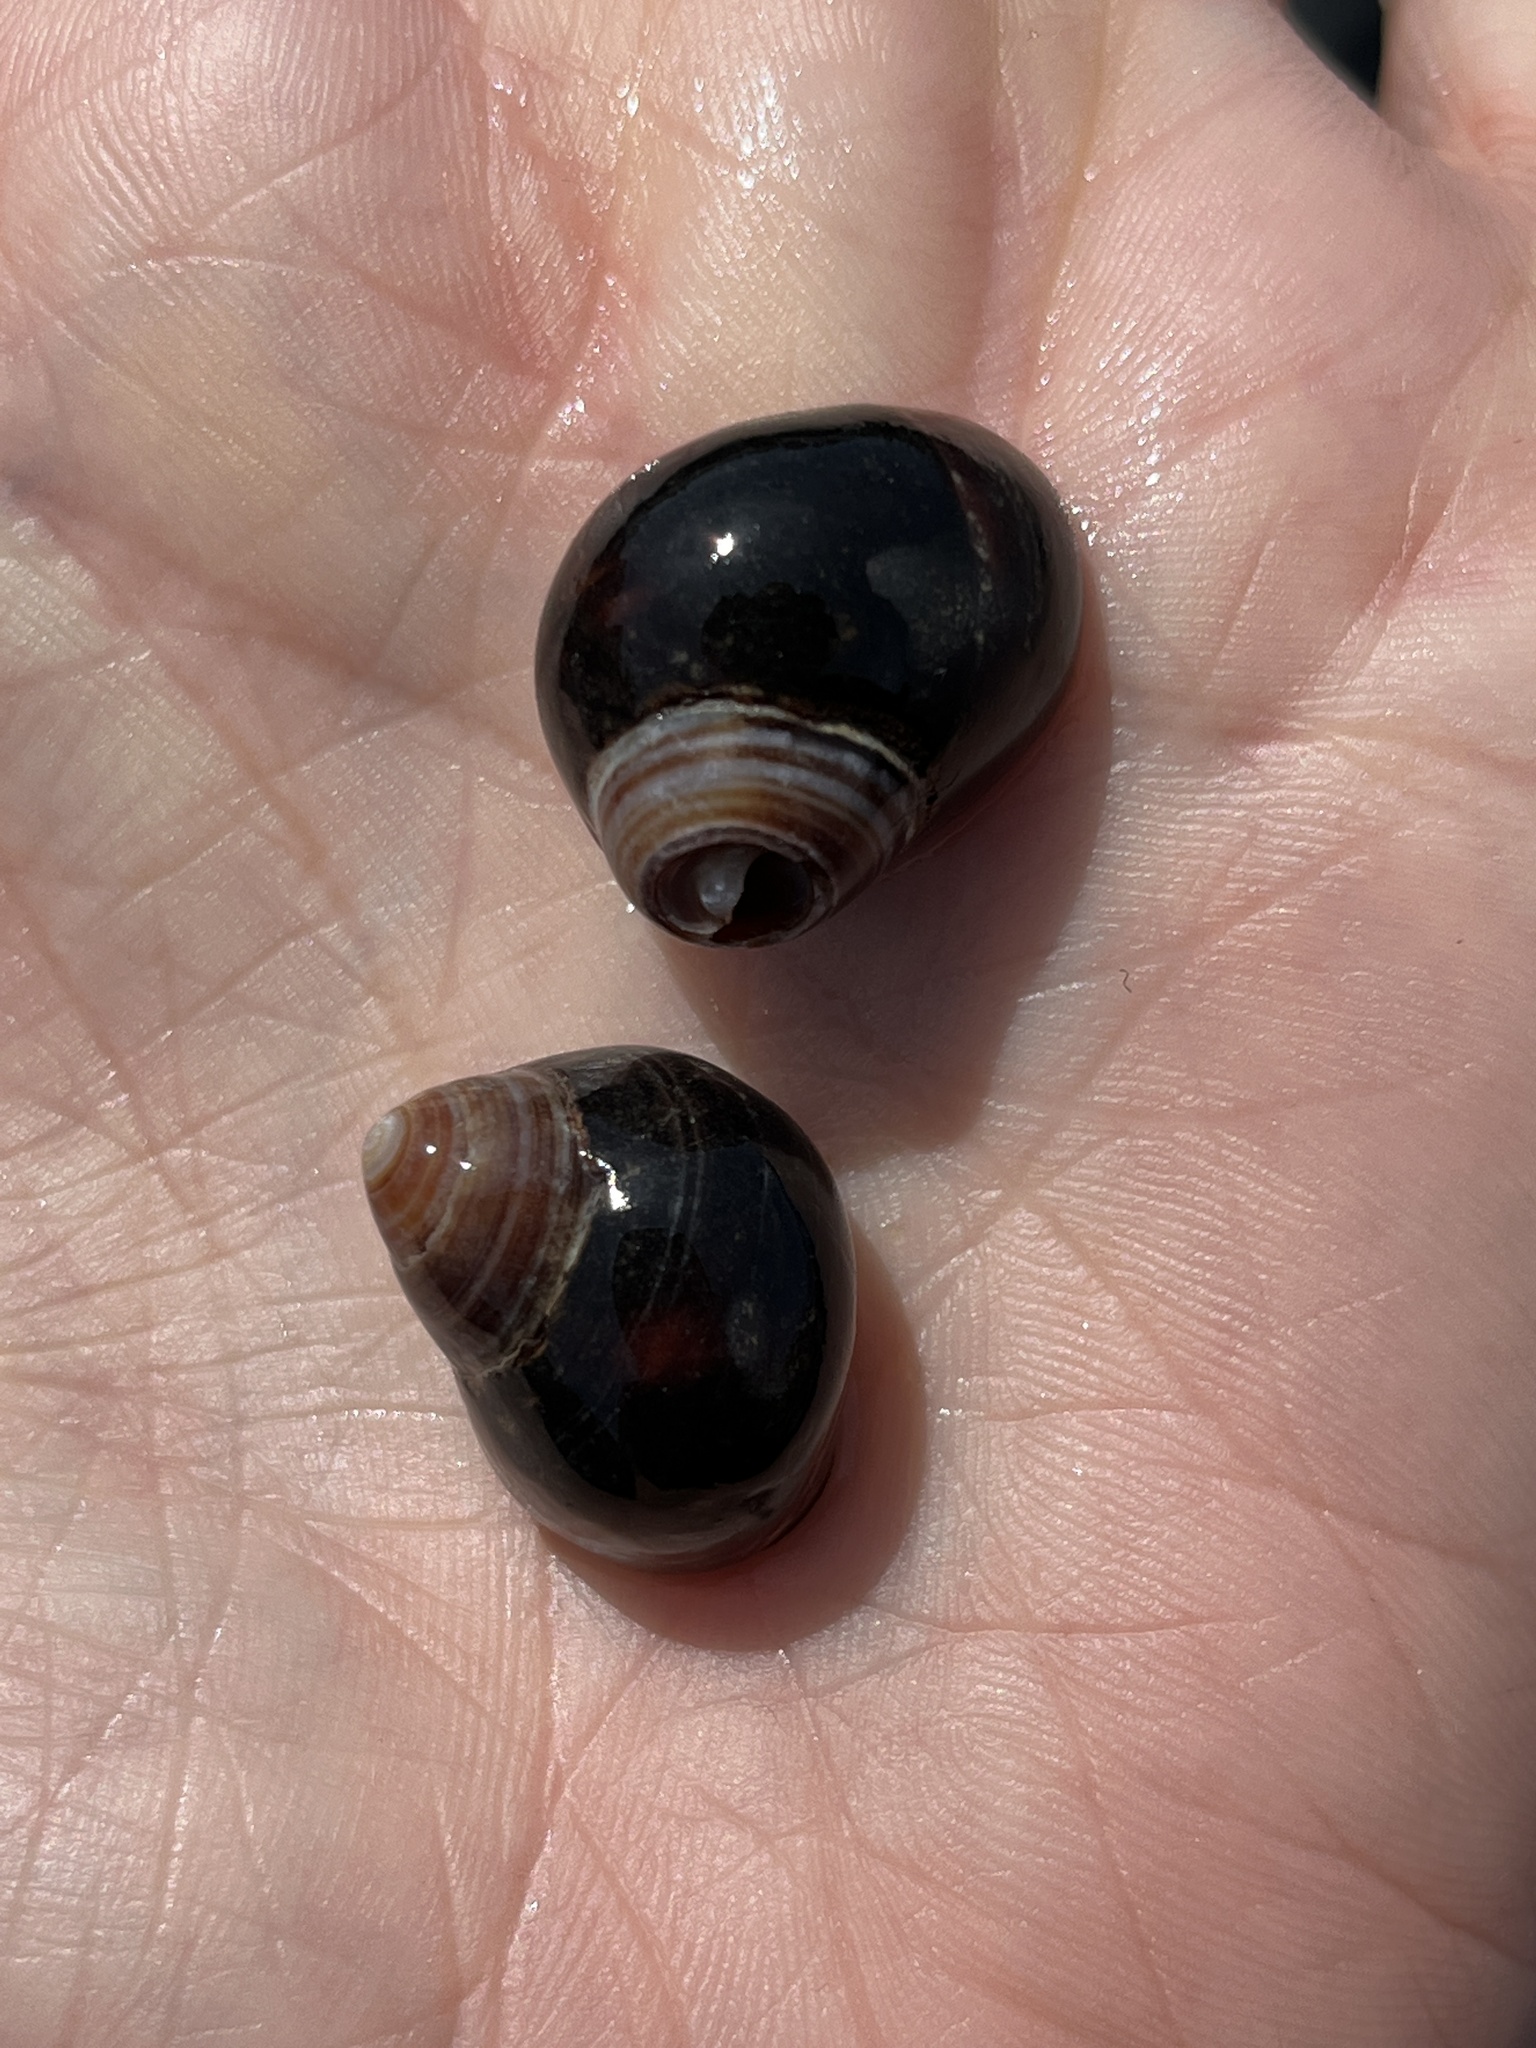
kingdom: Animalia
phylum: Mollusca
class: Gastropoda
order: Littorinimorpha
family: Littorinidae
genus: Littorina
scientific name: Littorina littorea
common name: Common periwinkle
